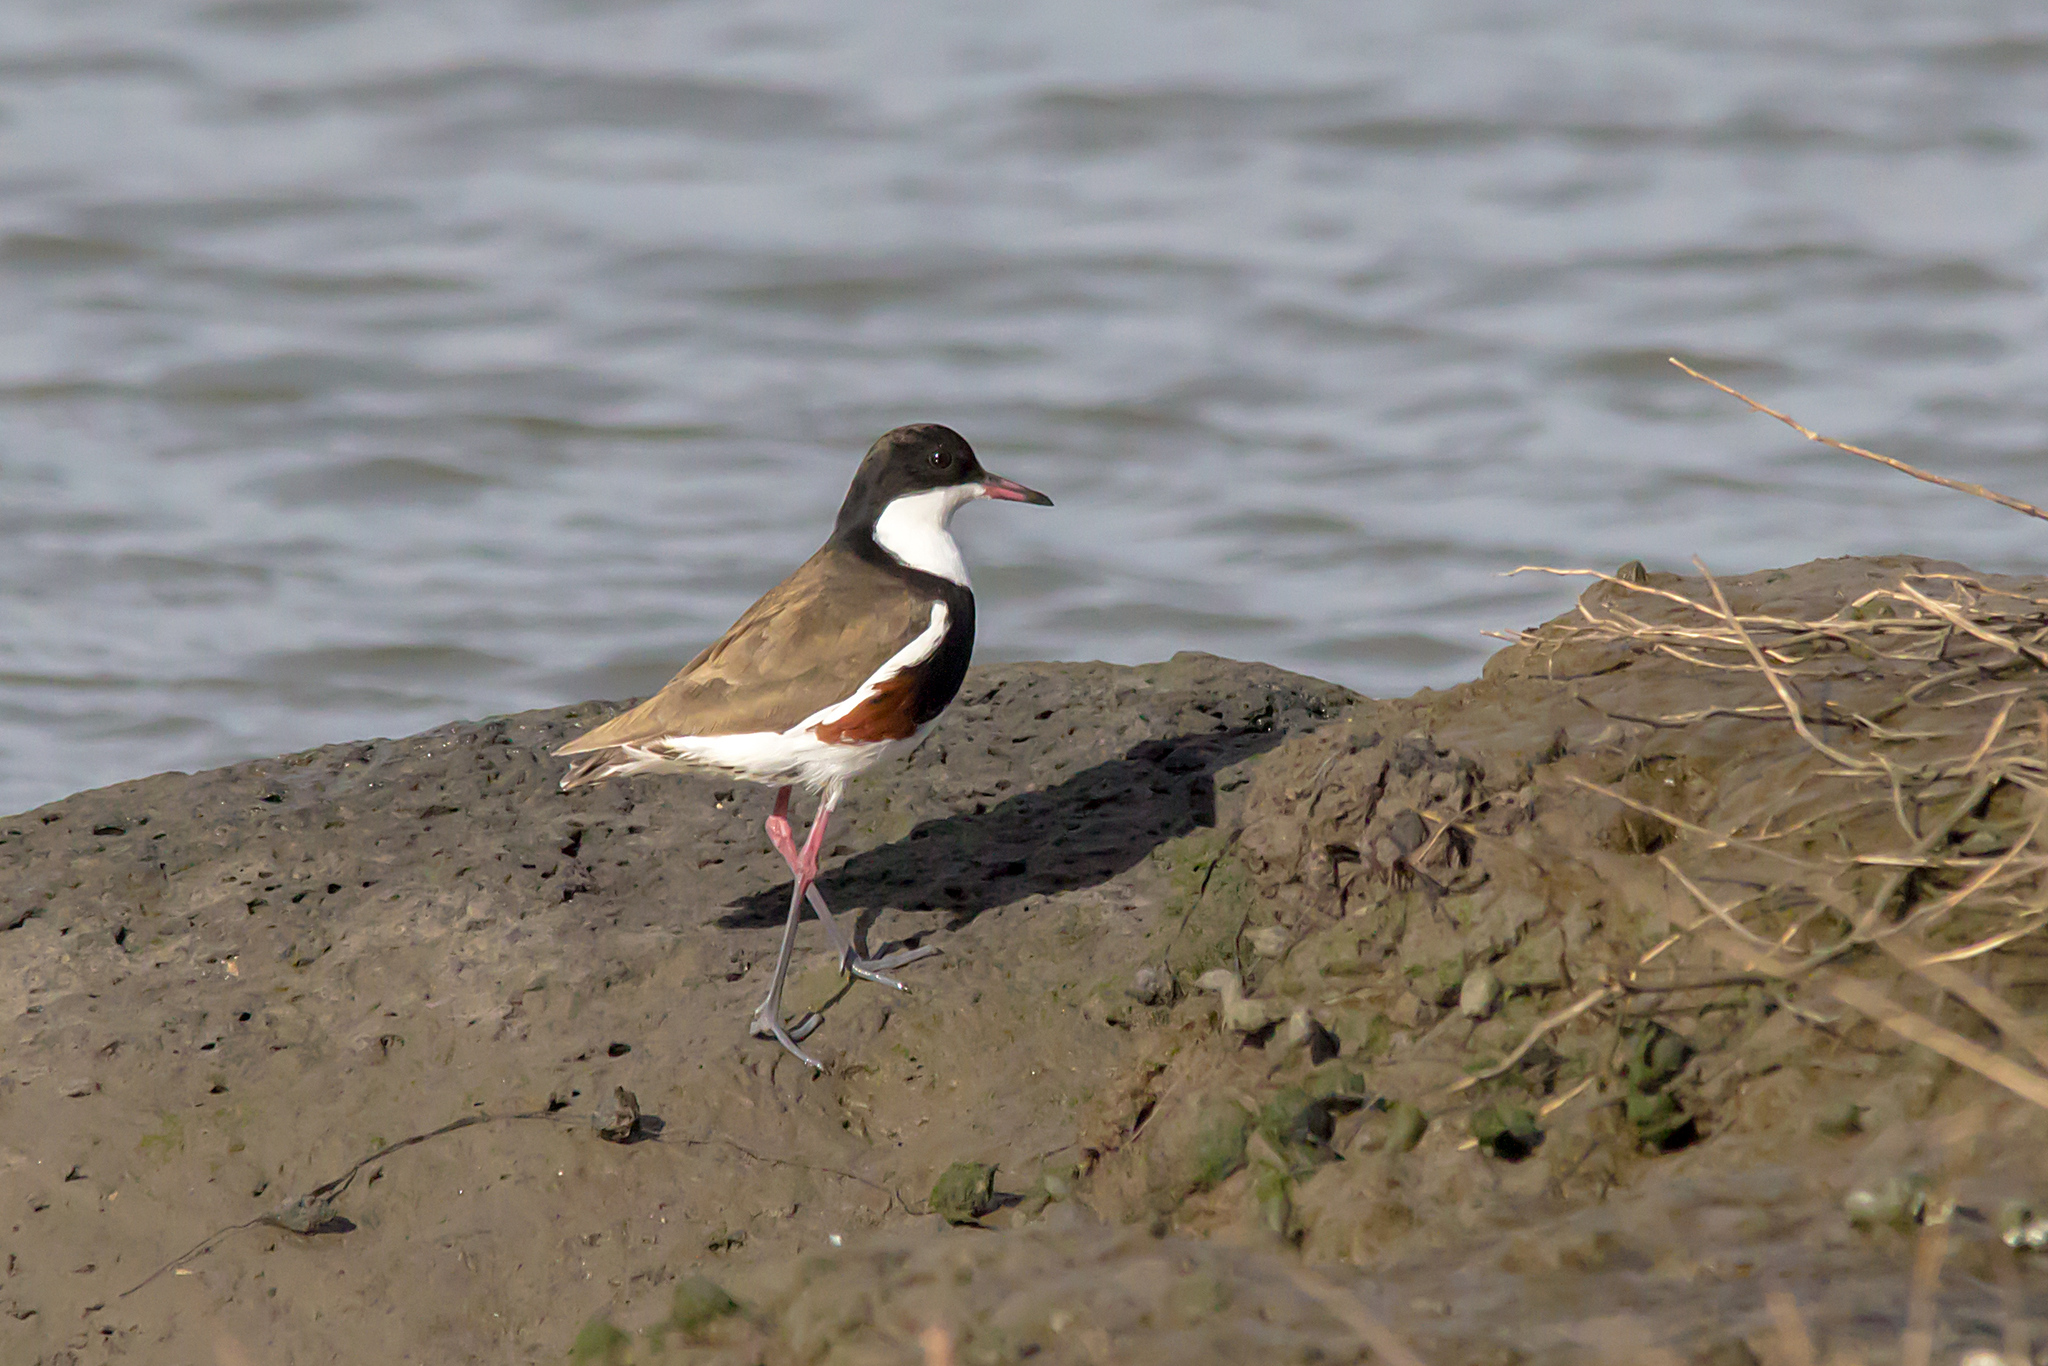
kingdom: Animalia
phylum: Chordata
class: Aves
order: Charadriiformes
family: Charadriidae
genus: Erythrogonys
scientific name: Erythrogonys cinctus
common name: Red-kneed dotterel
